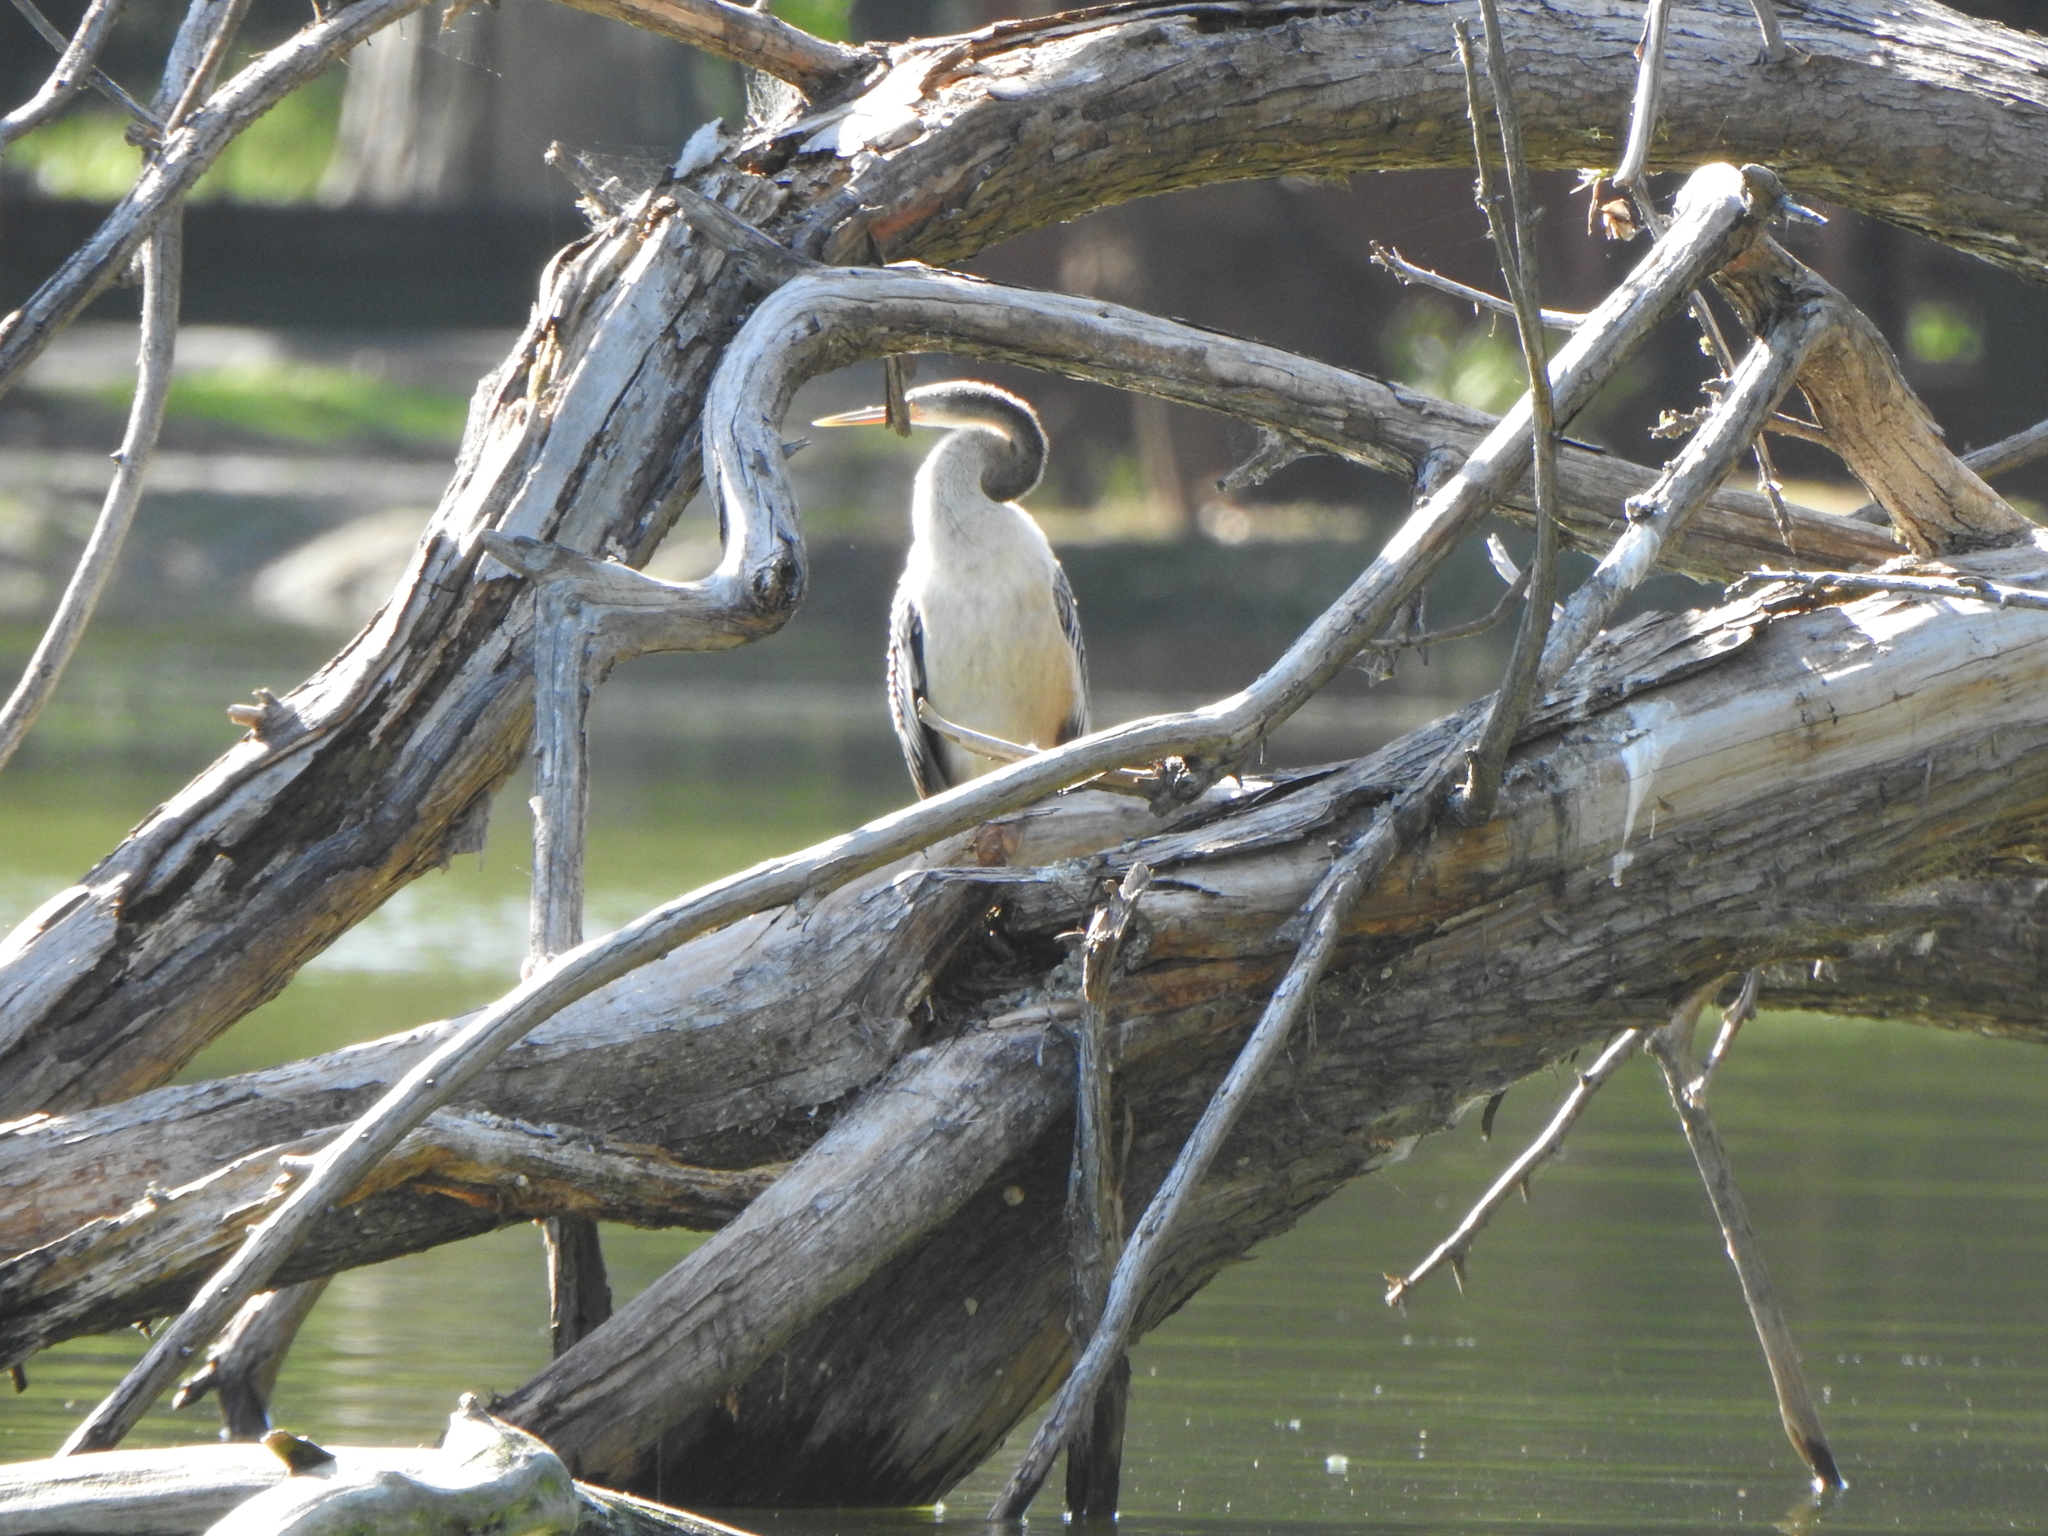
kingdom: Animalia
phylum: Chordata
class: Aves
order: Suliformes
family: Anhingidae
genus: Anhinga
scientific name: Anhinga anhinga
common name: Anhinga
